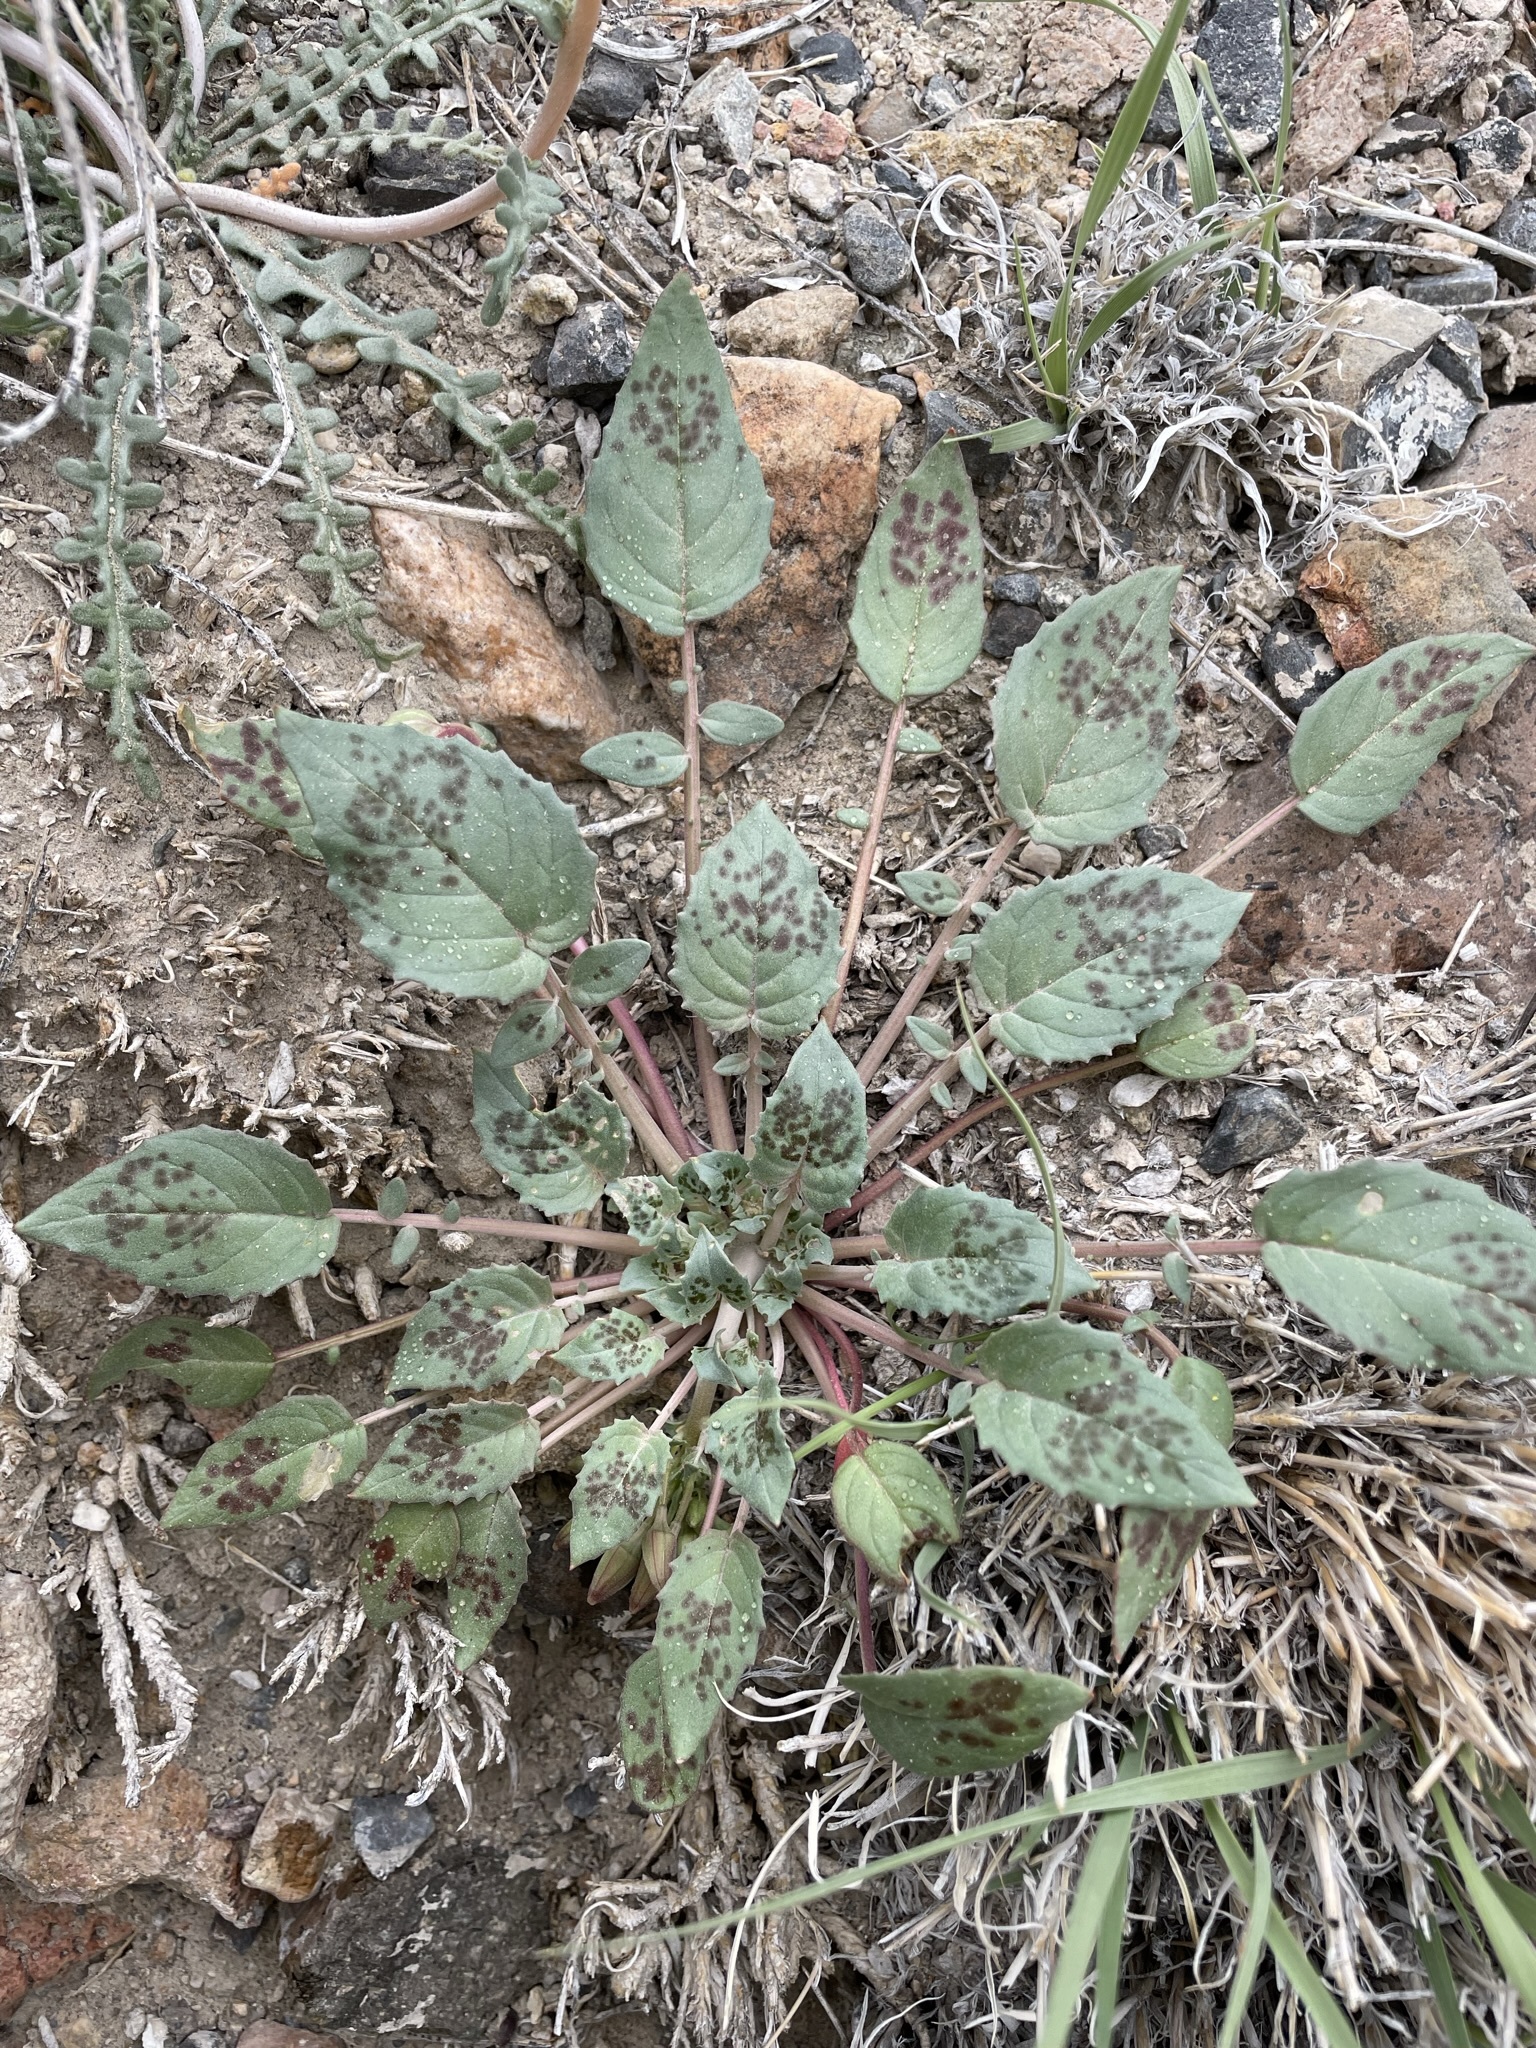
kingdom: Plantae
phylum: Tracheophyta
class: Magnoliopsida
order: Myrtales
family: Onagraceae
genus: Chylismia
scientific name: Chylismia claviformis
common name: Browneyes
